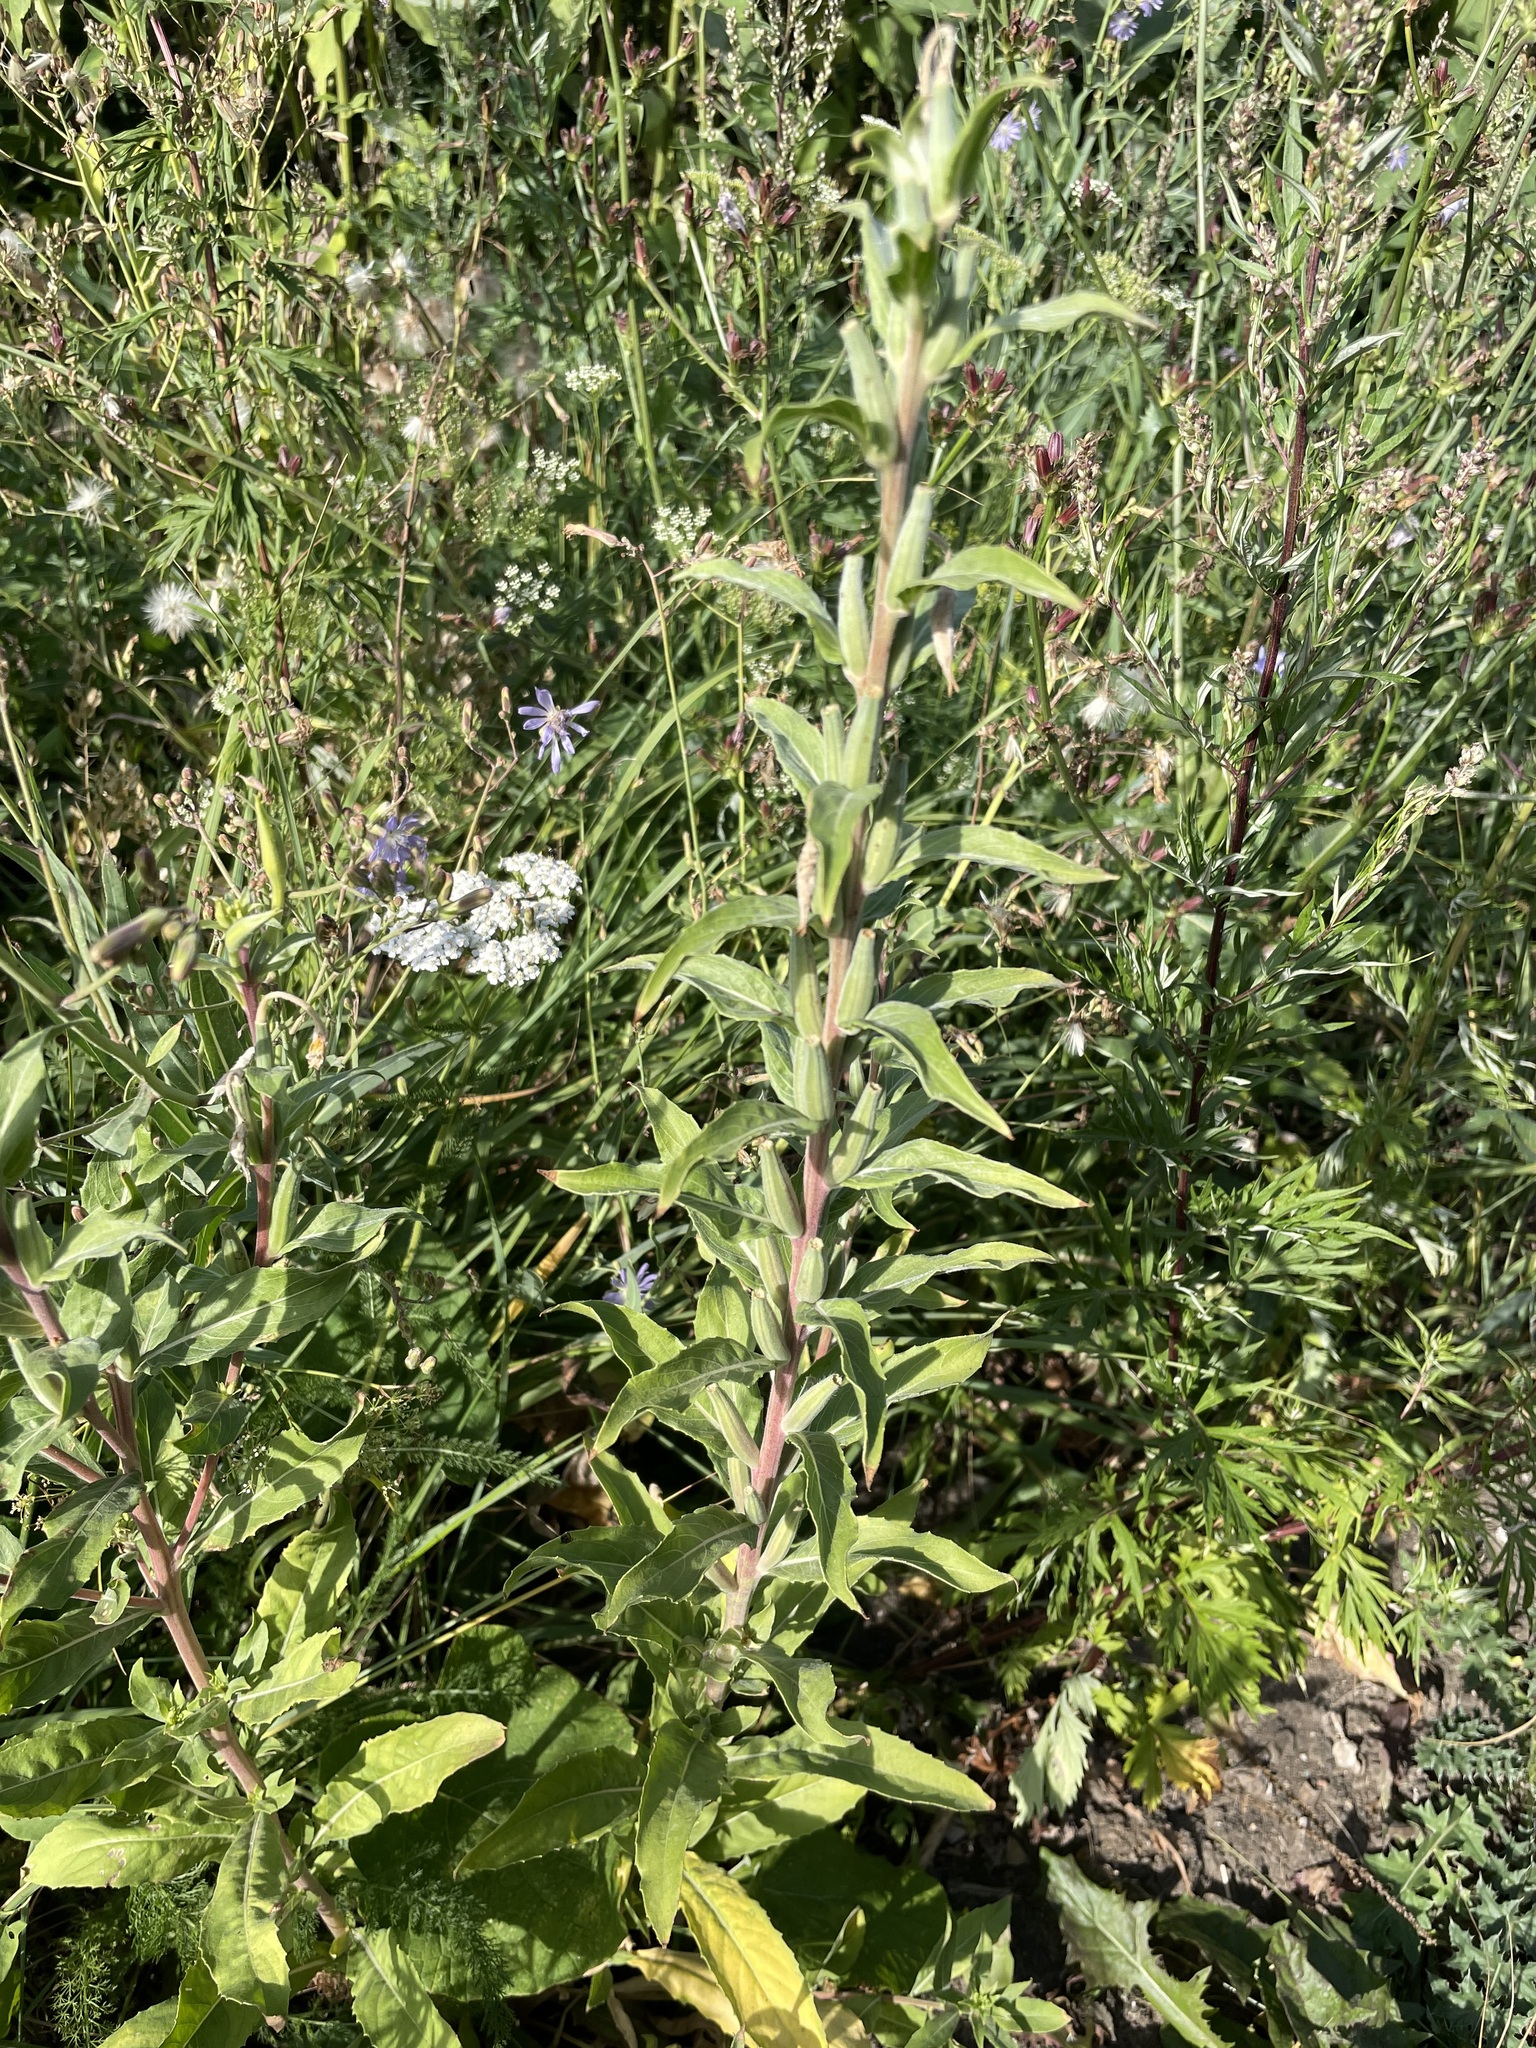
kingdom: Plantae
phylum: Tracheophyta
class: Magnoliopsida
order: Myrtales
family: Onagraceae
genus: Oenothera
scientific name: Oenothera villosa
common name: Hairy evening-primrose
